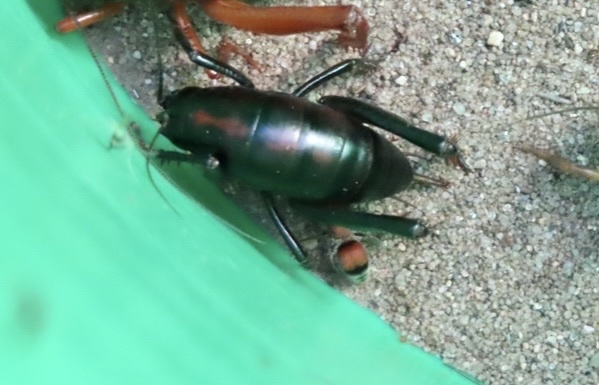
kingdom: Animalia
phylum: Arthropoda
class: Insecta
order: Orthoptera
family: Rhaphidophoridae
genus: Udeopsylla
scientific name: Udeopsylla robusta
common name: Robust camel cricket
